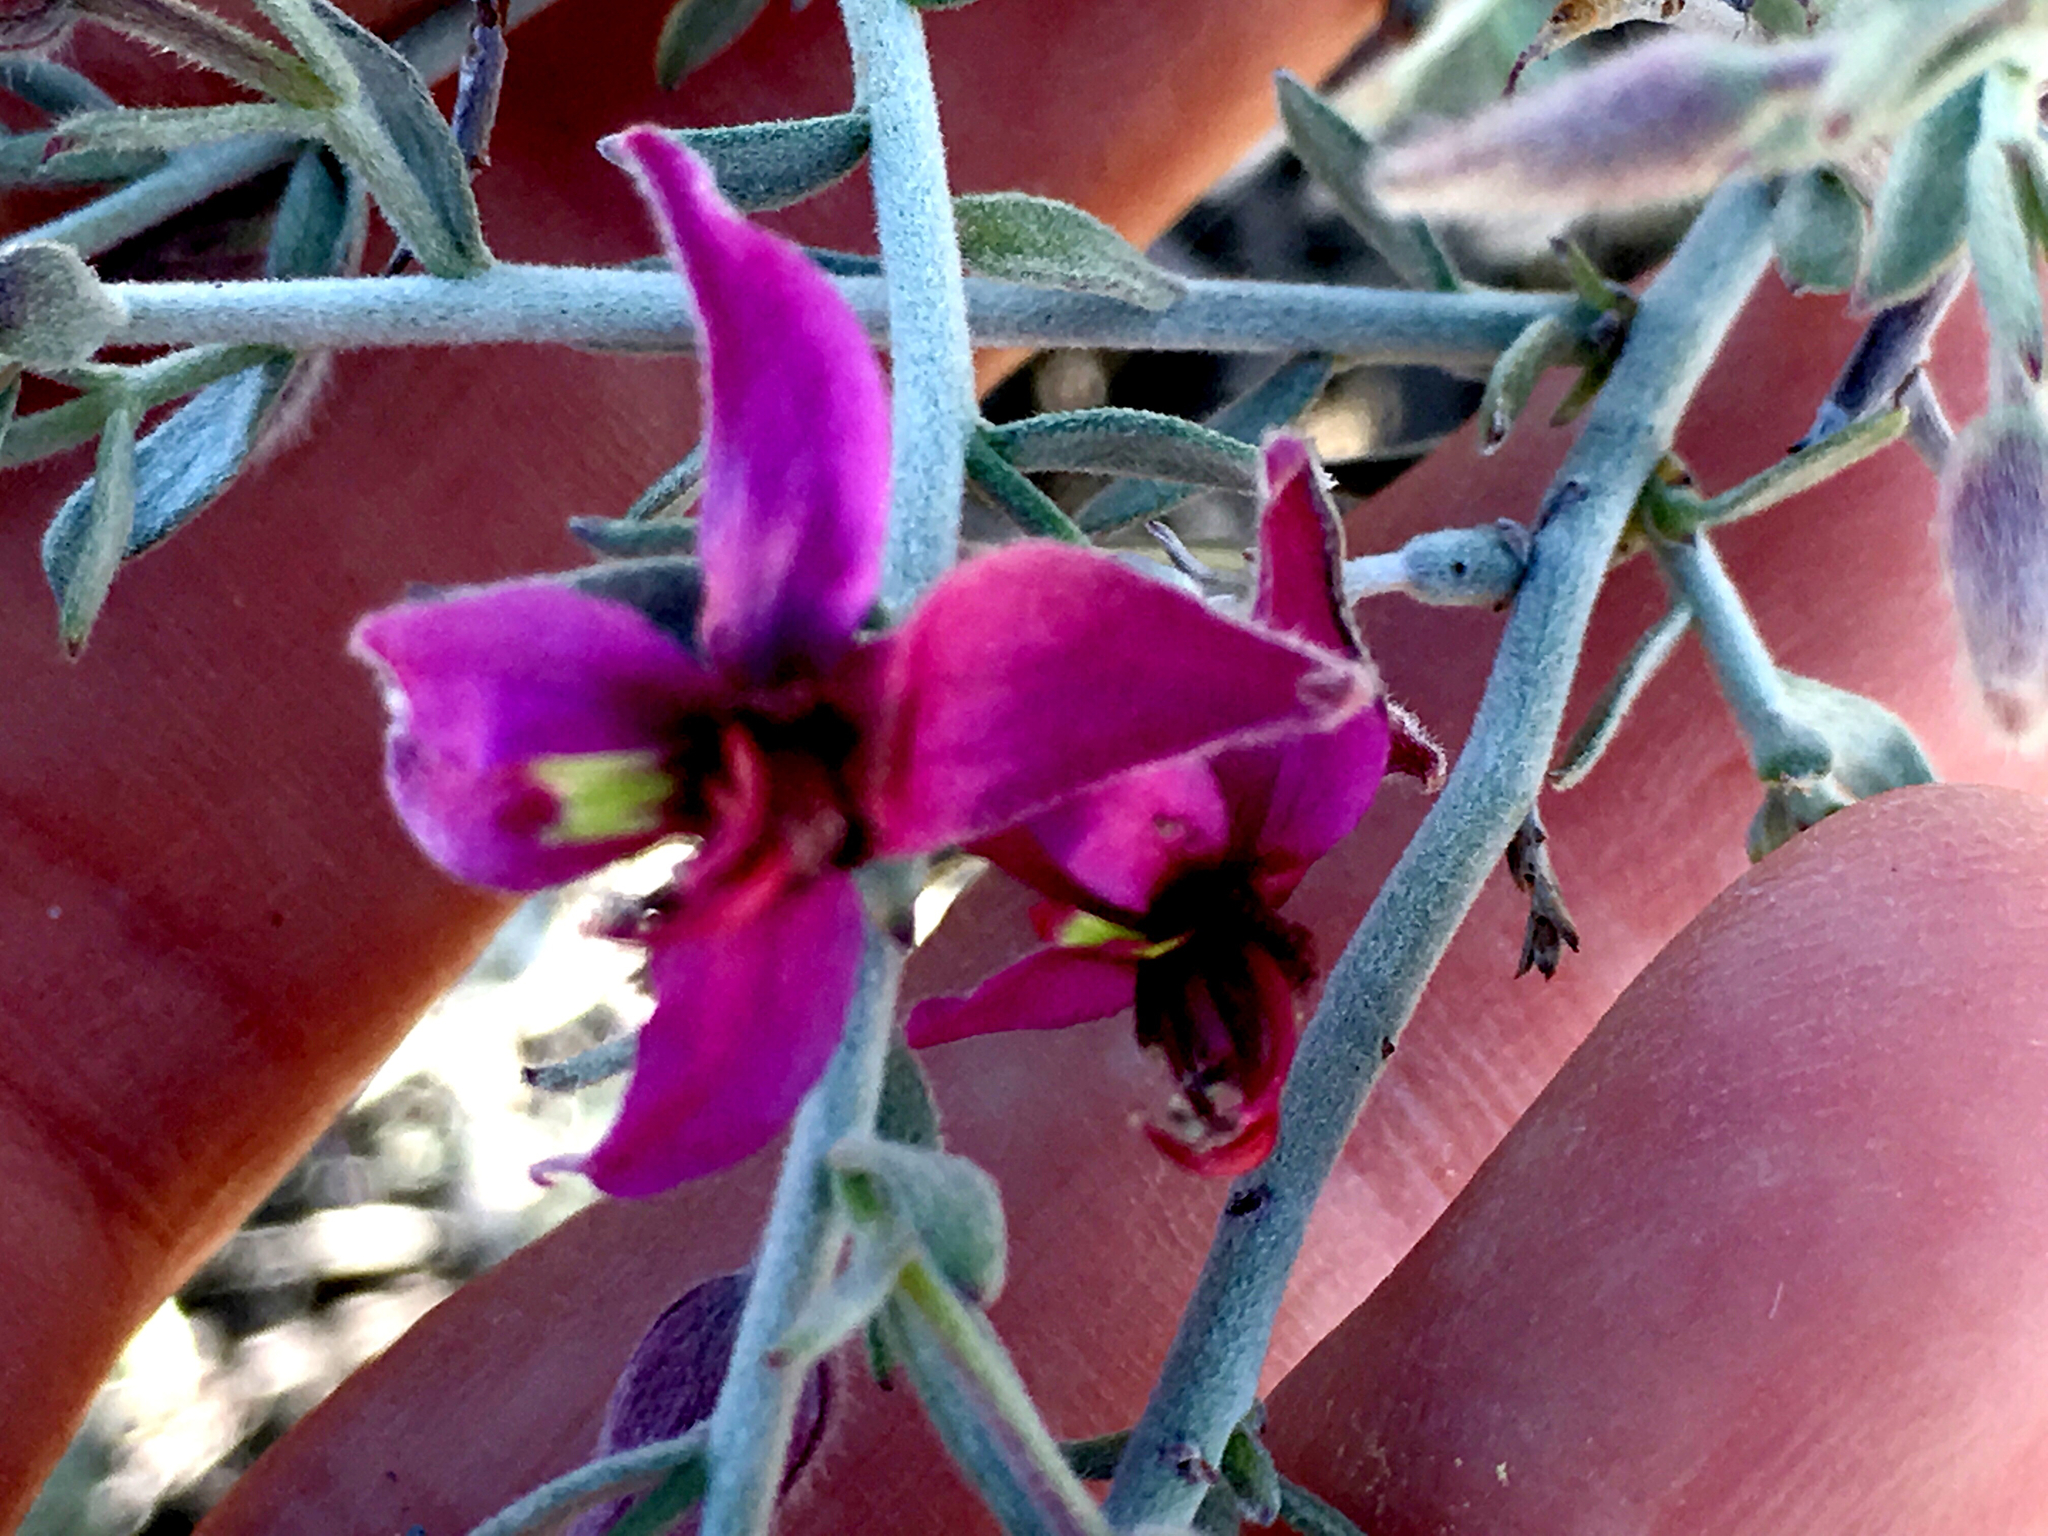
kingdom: Plantae
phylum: Tracheophyta
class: Magnoliopsida
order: Zygophyllales
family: Krameriaceae
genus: Krameria
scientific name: Krameria bicolor
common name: White ratany
